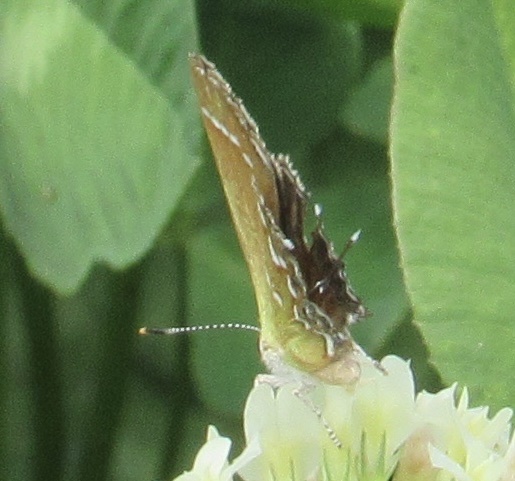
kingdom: Animalia
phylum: Arthropoda
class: Insecta
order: Lepidoptera
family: Lycaenidae
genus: Mitoura
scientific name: Mitoura gryneus
